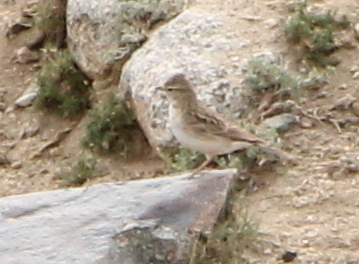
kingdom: Animalia
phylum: Chordata
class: Aves
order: Passeriformes
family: Alaudidae
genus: Calandrella
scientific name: Calandrella brachydactyla
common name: Greater short-toed lark
